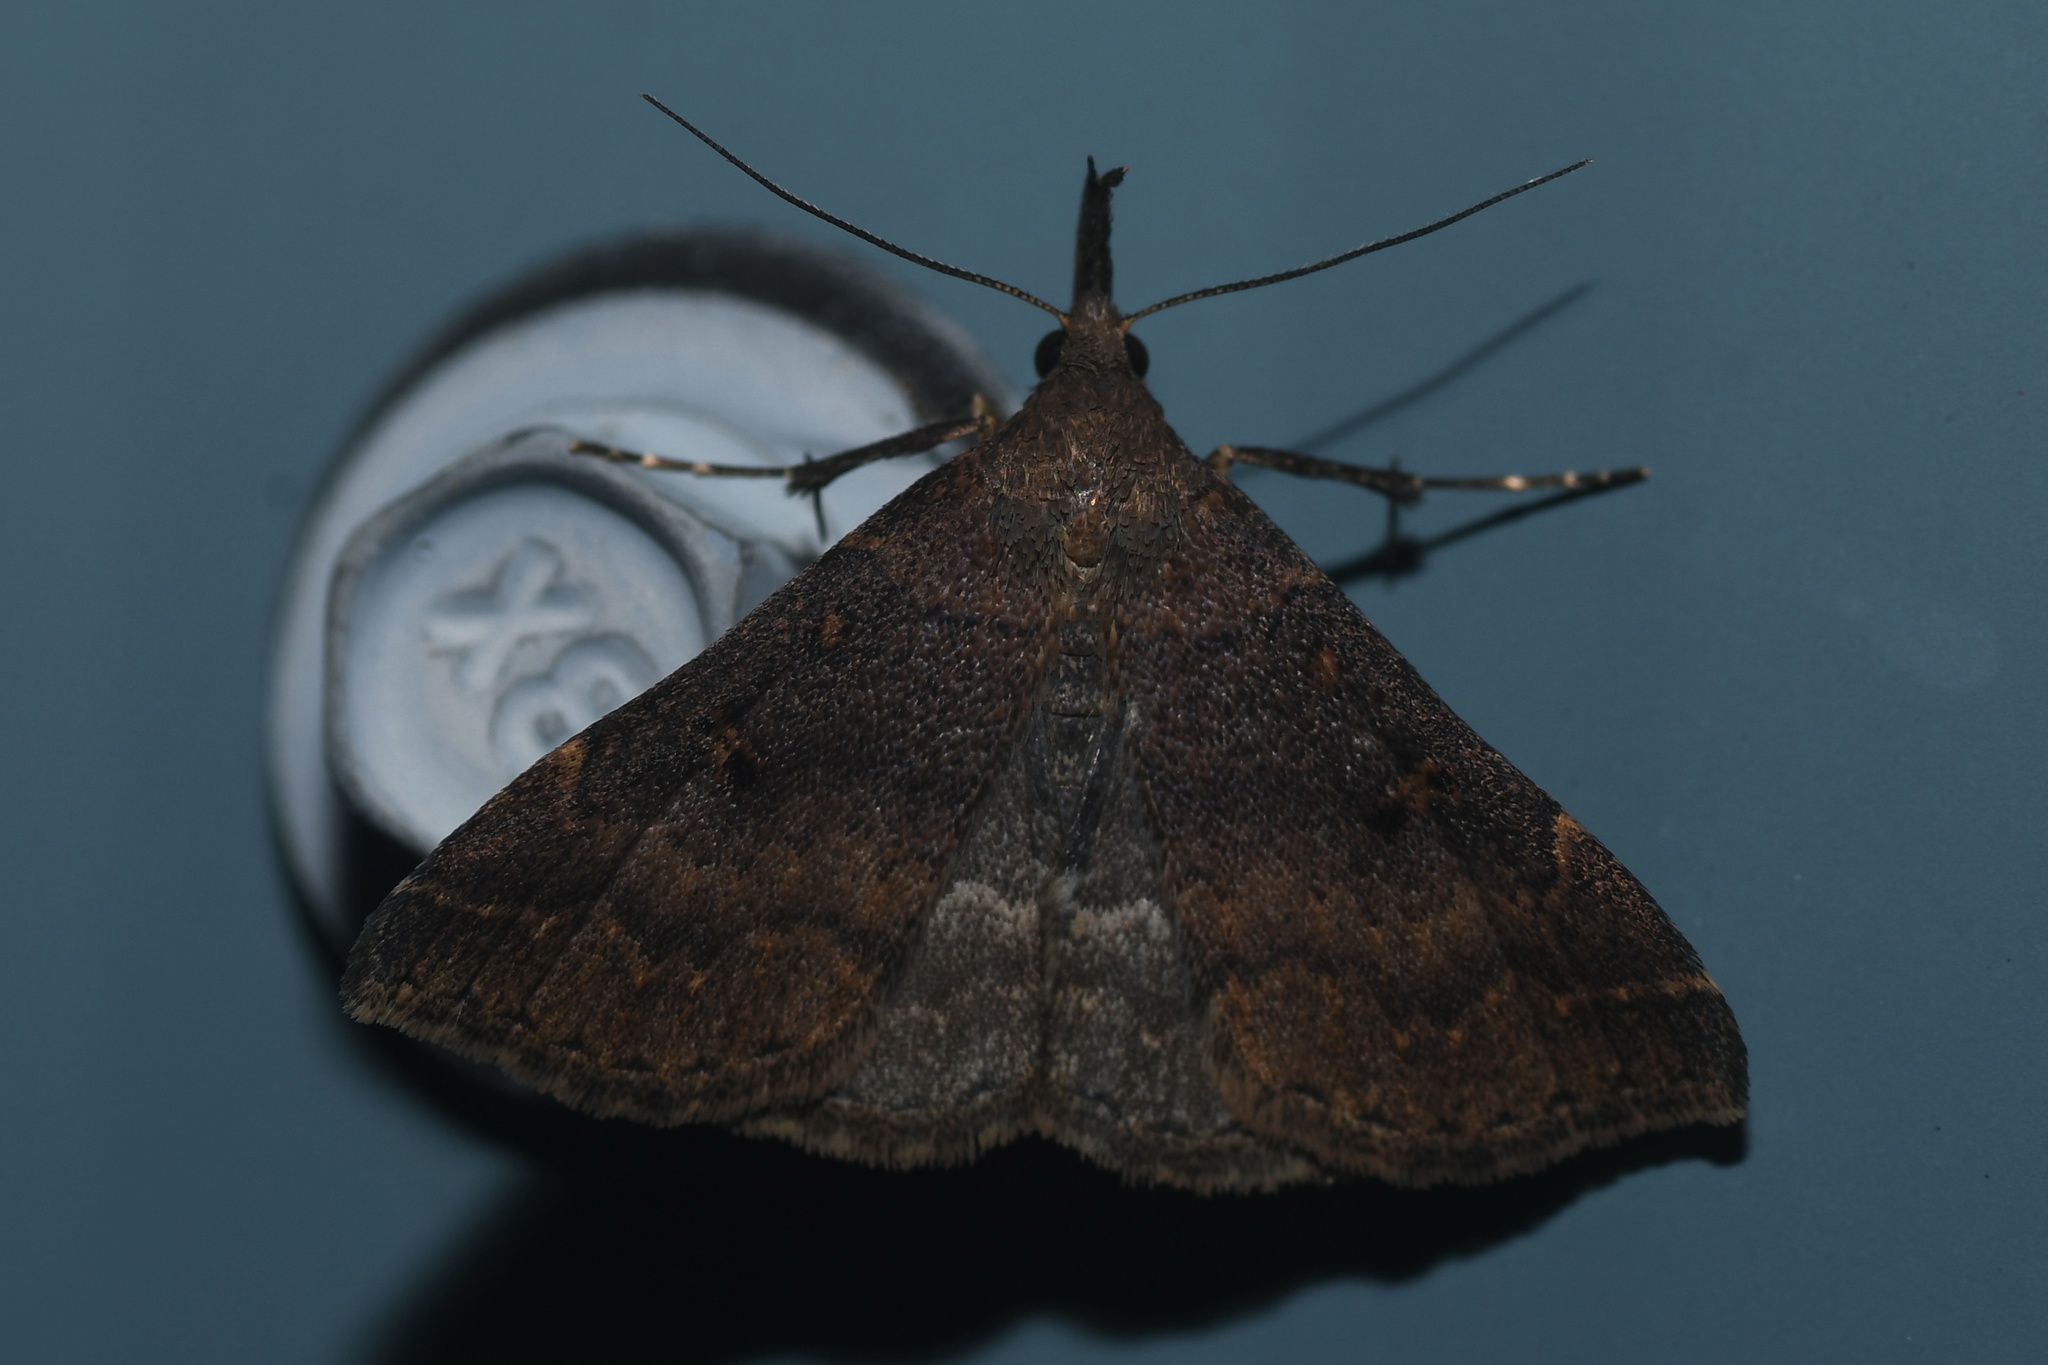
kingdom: Animalia
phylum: Arthropoda
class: Insecta
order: Lepidoptera
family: Erebidae
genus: Renia
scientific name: Renia factiosalis
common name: Sociable renia moth
